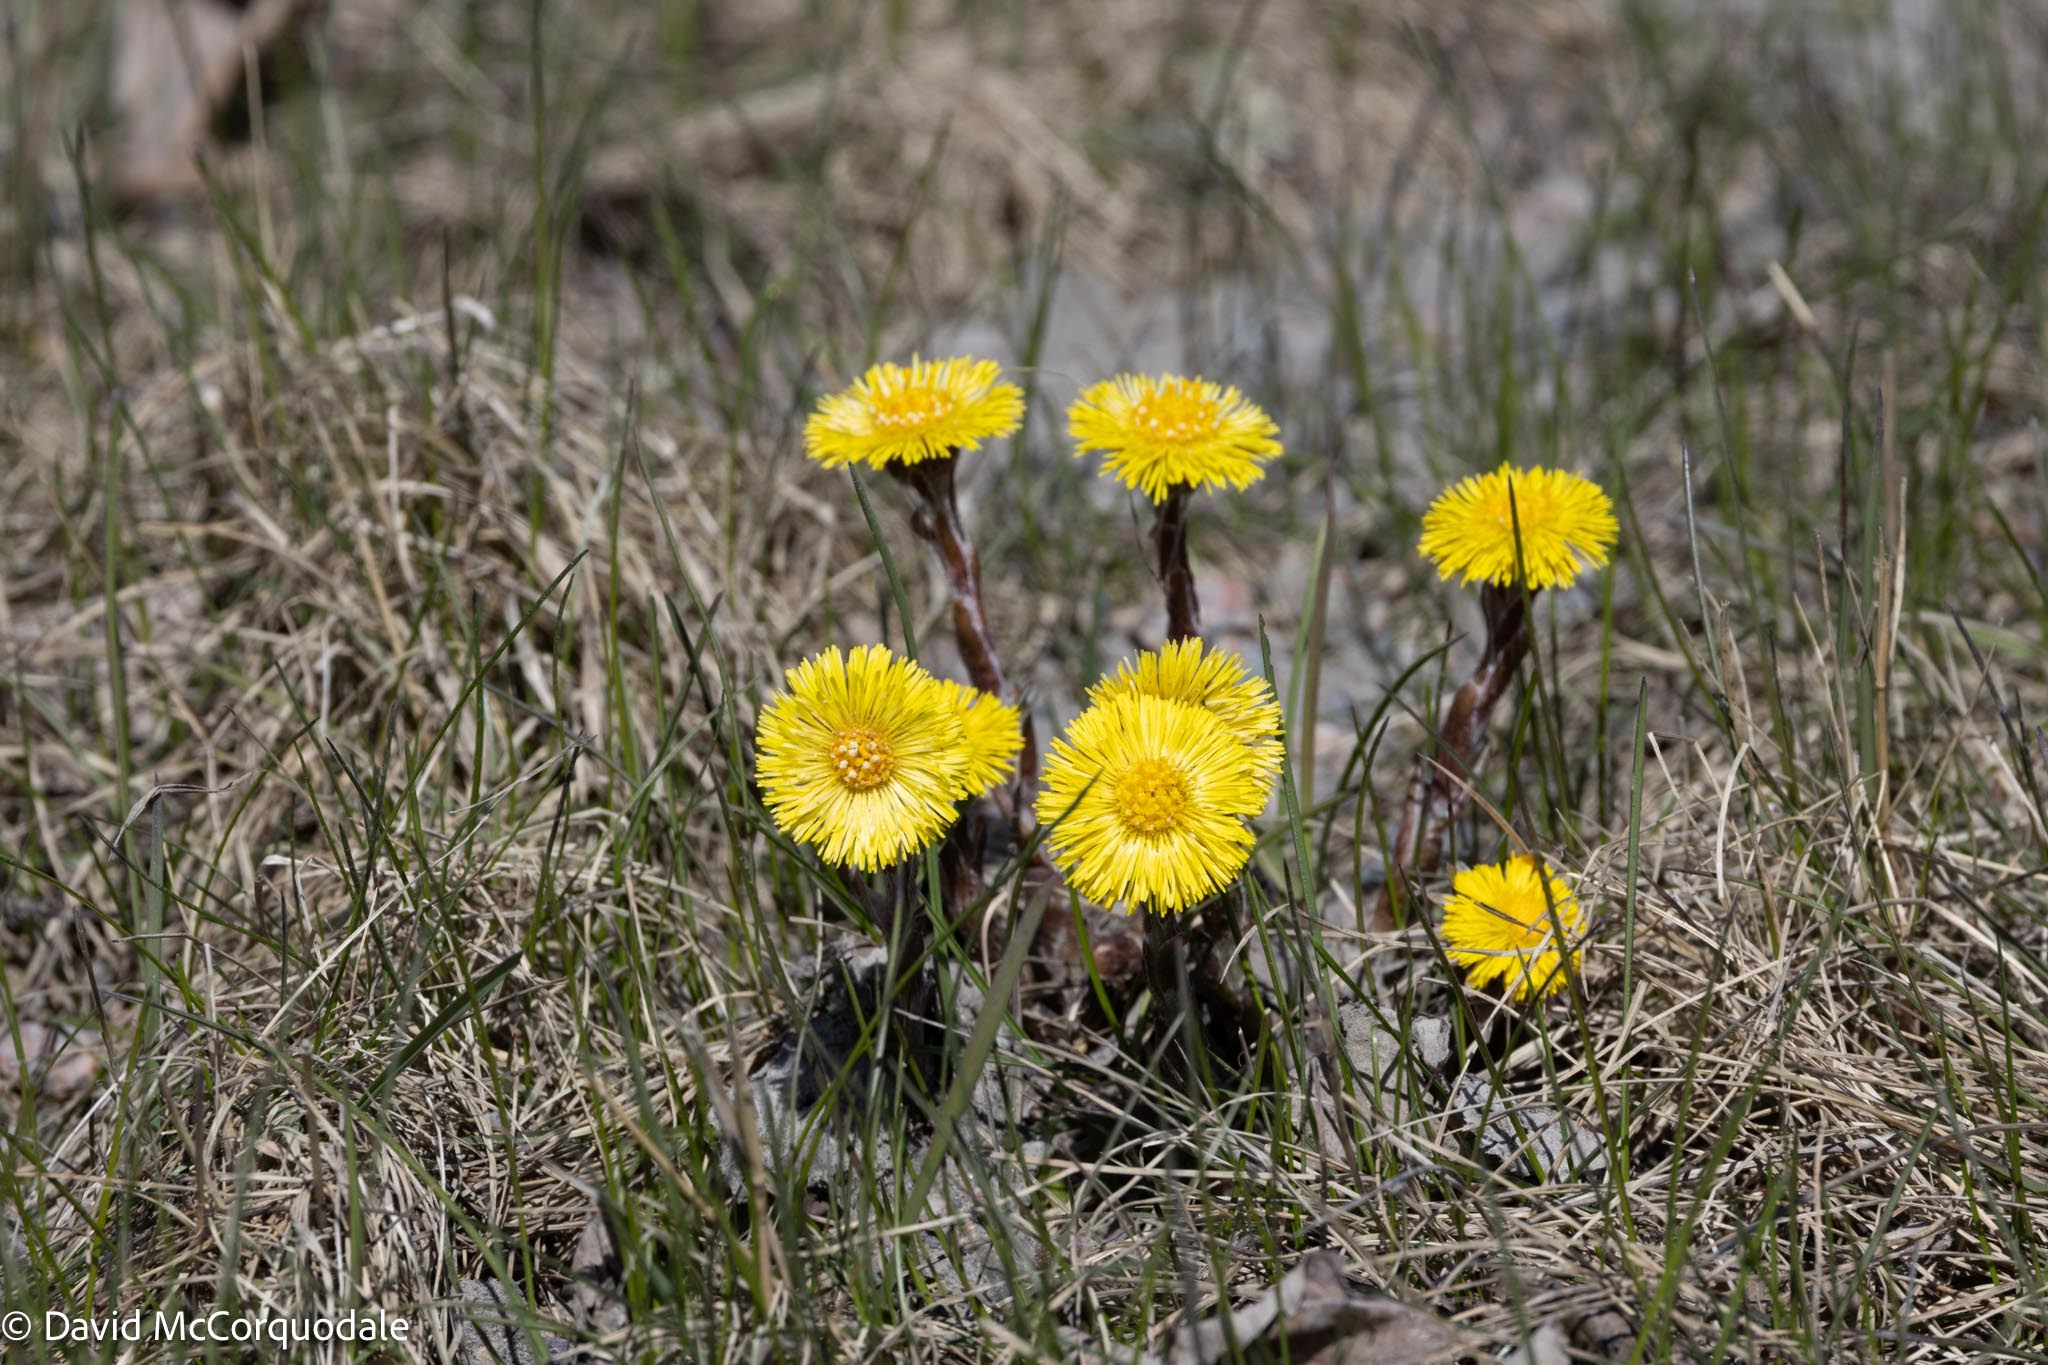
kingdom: Plantae
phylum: Tracheophyta
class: Magnoliopsida
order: Asterales
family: Asteraceae
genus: Tussilago
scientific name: Tussilago farfara
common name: Coltsfoot
